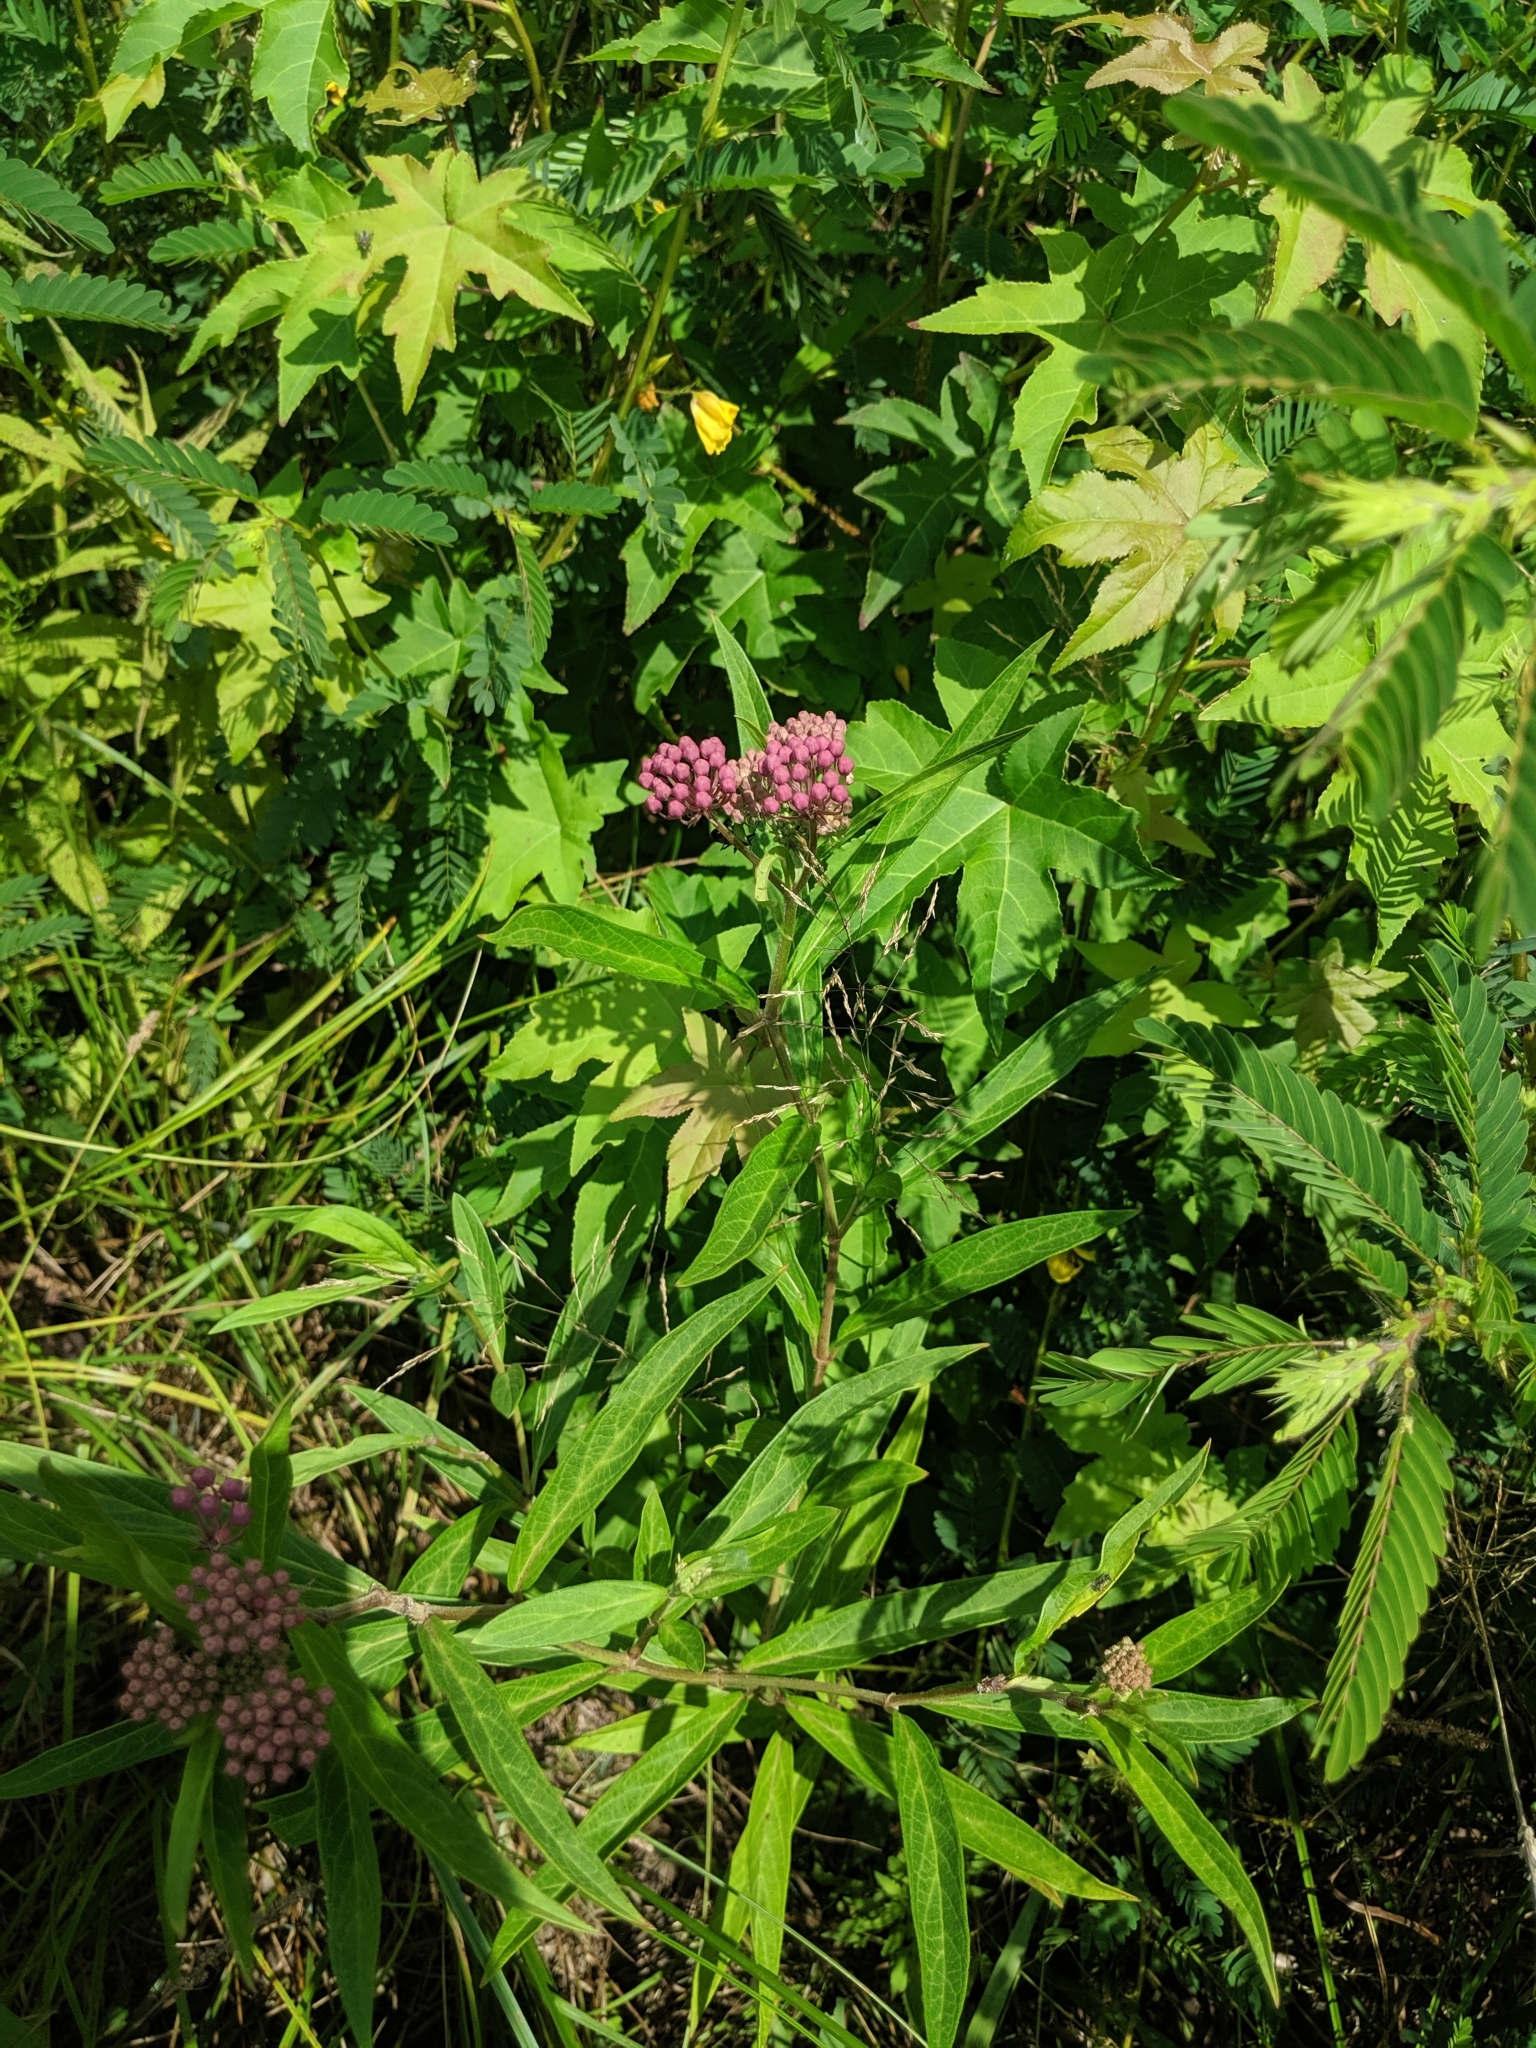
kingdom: Plantae
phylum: Tracheophyta
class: Magnoliopsida
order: Gentianales
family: Apocynaceae
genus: Asclepias
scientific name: Asclepias incarnata
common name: Swamp milkweed
